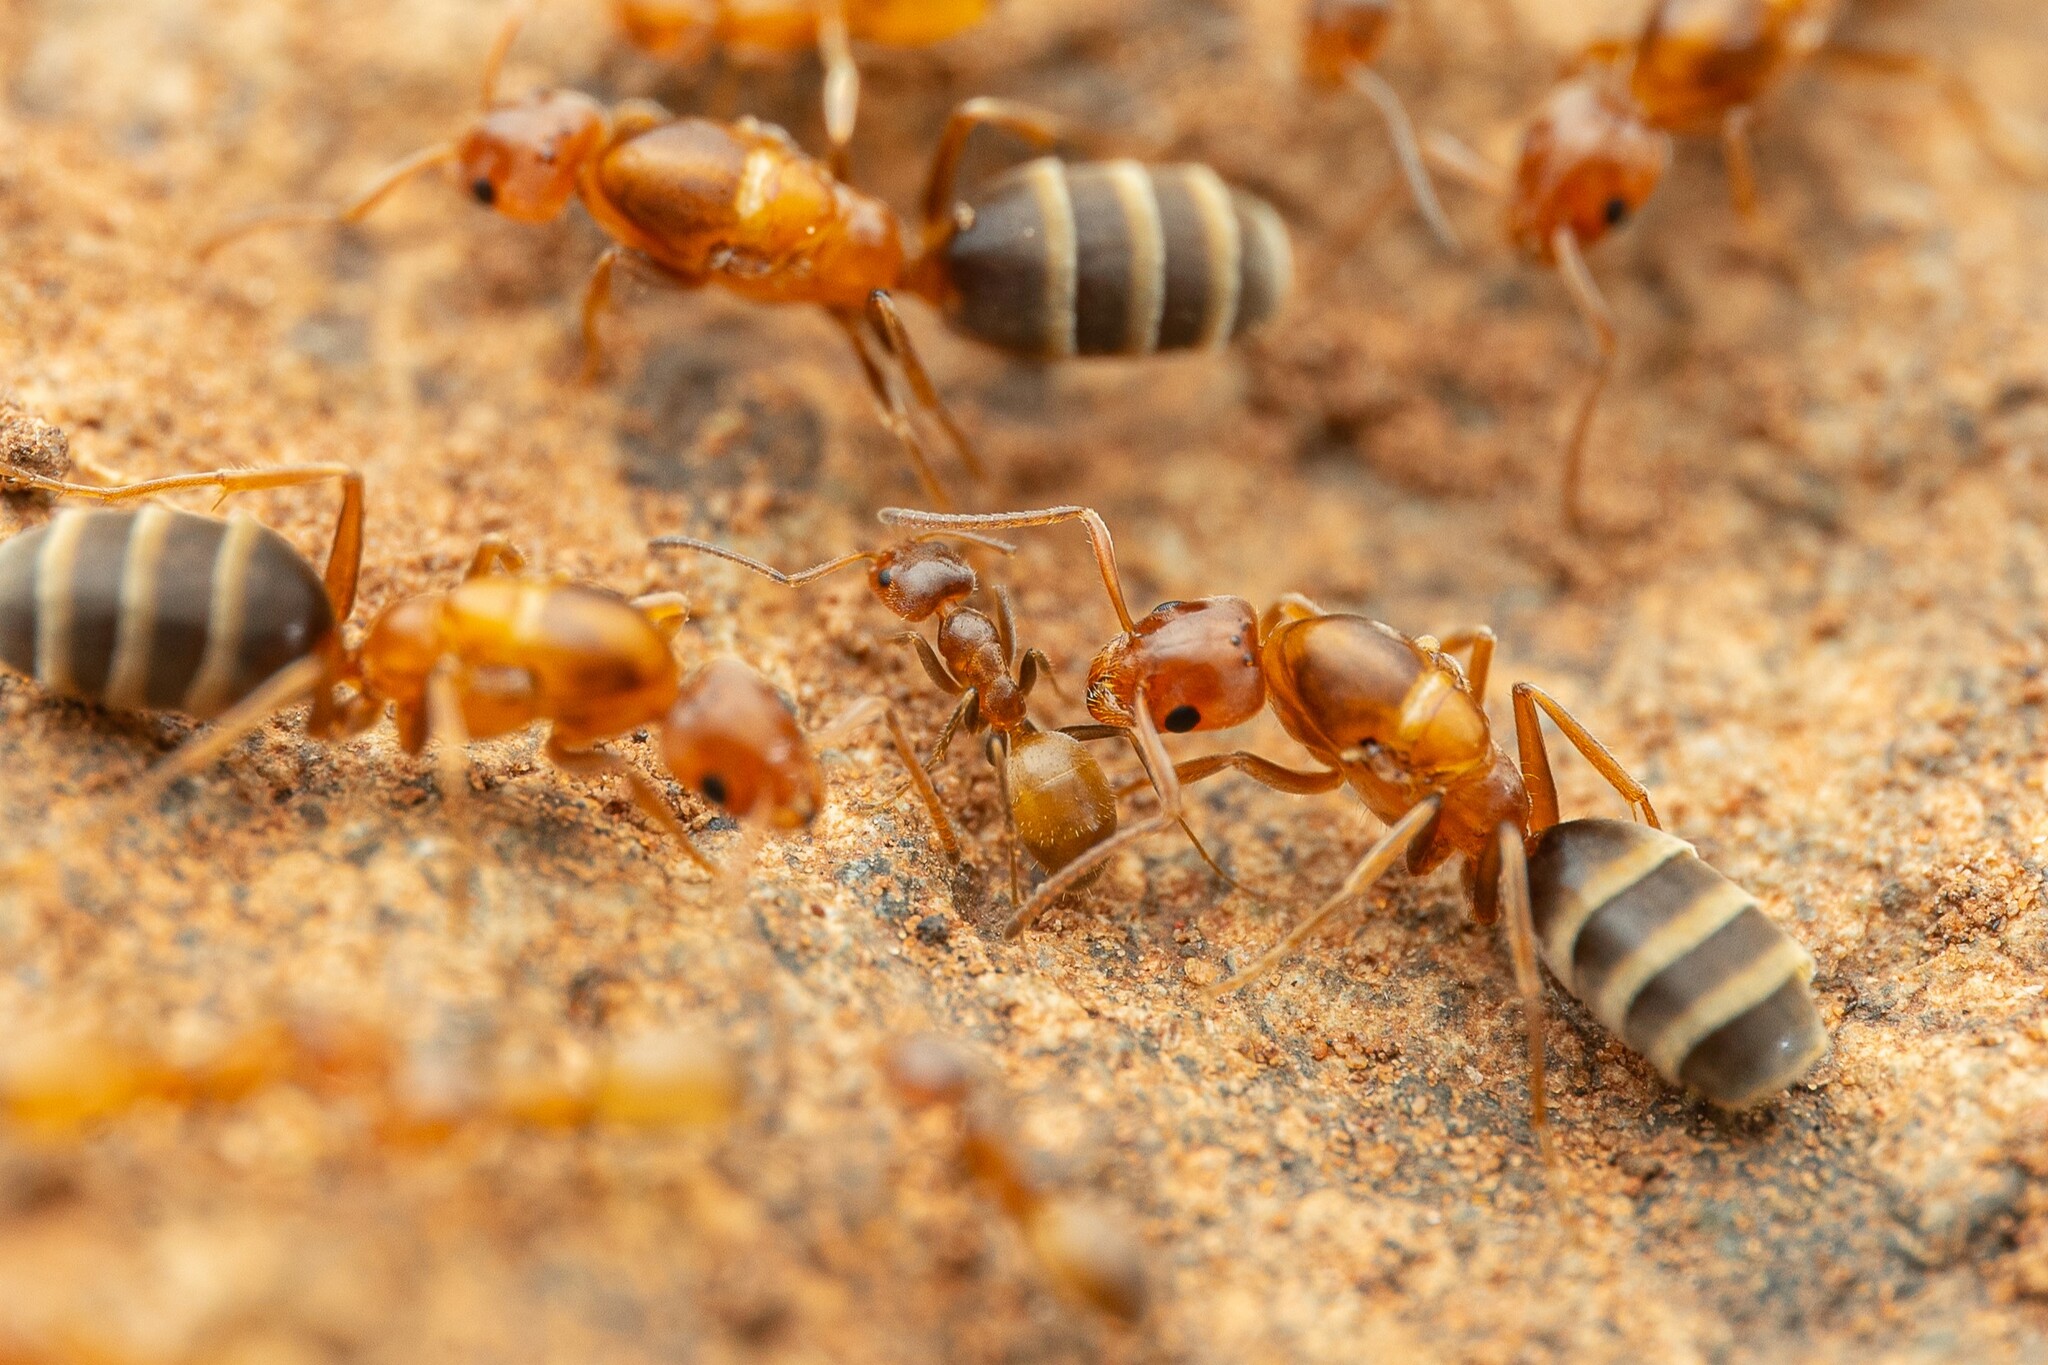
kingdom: Animalia
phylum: Arthropoda
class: Insecta
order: Hymenoptera
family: Formicidae
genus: Forelius
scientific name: Forelius mccooki
